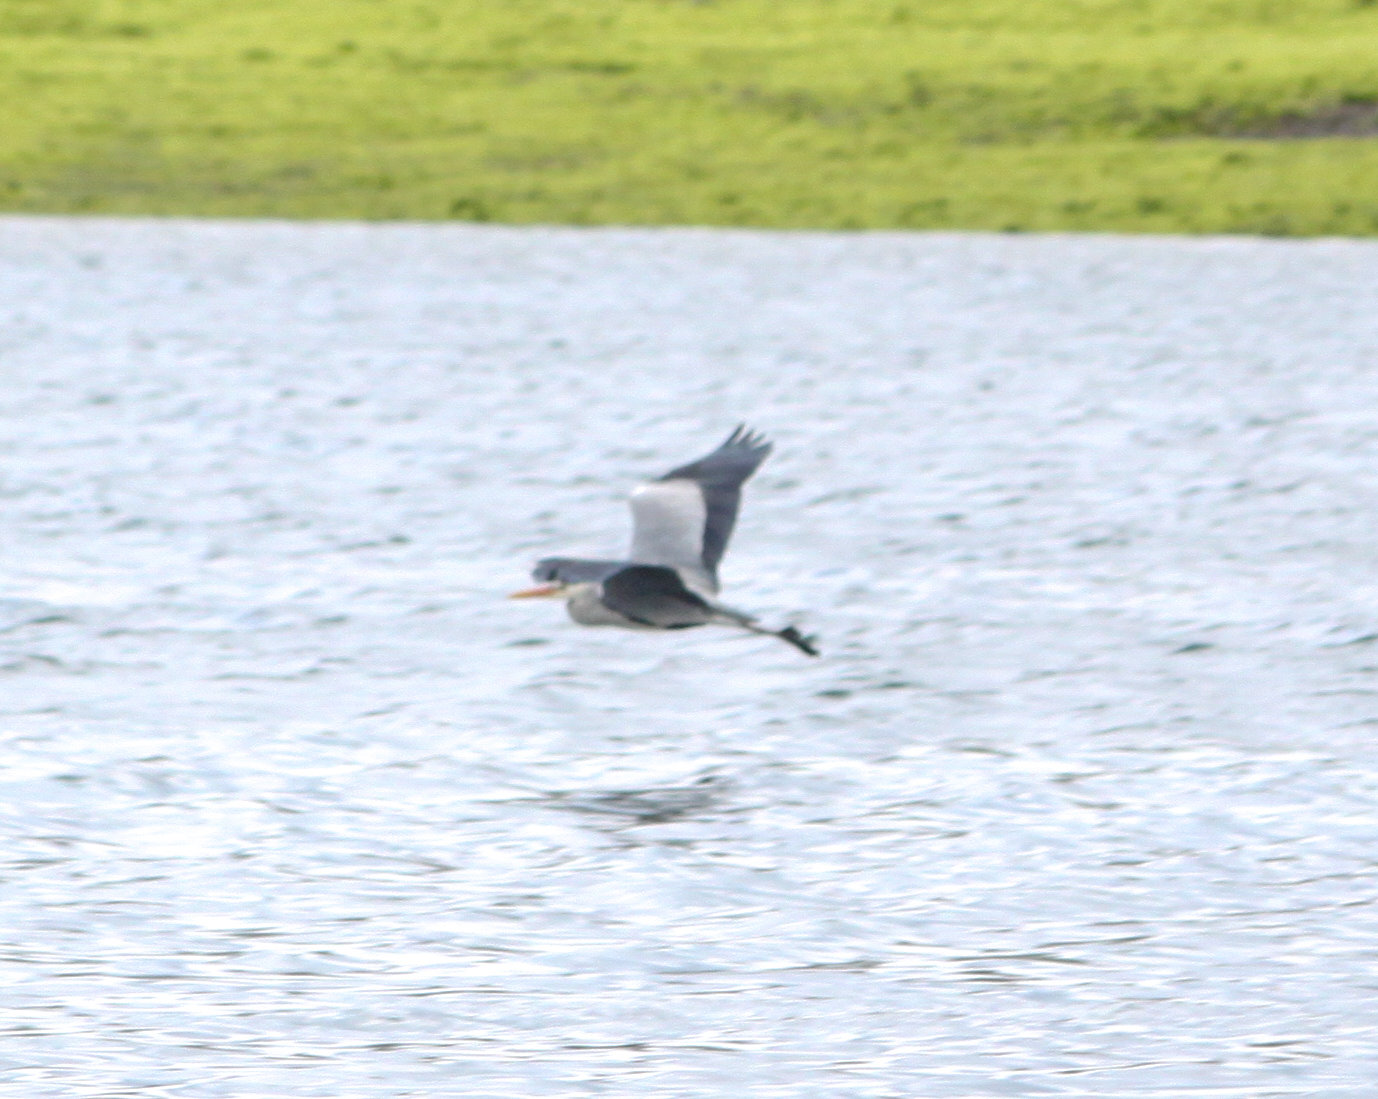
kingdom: Animalia
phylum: Chordata
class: Aves
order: Pelecaniformes
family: Ardeidae
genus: Ardea
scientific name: Ardea cinerea
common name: Grey heron
